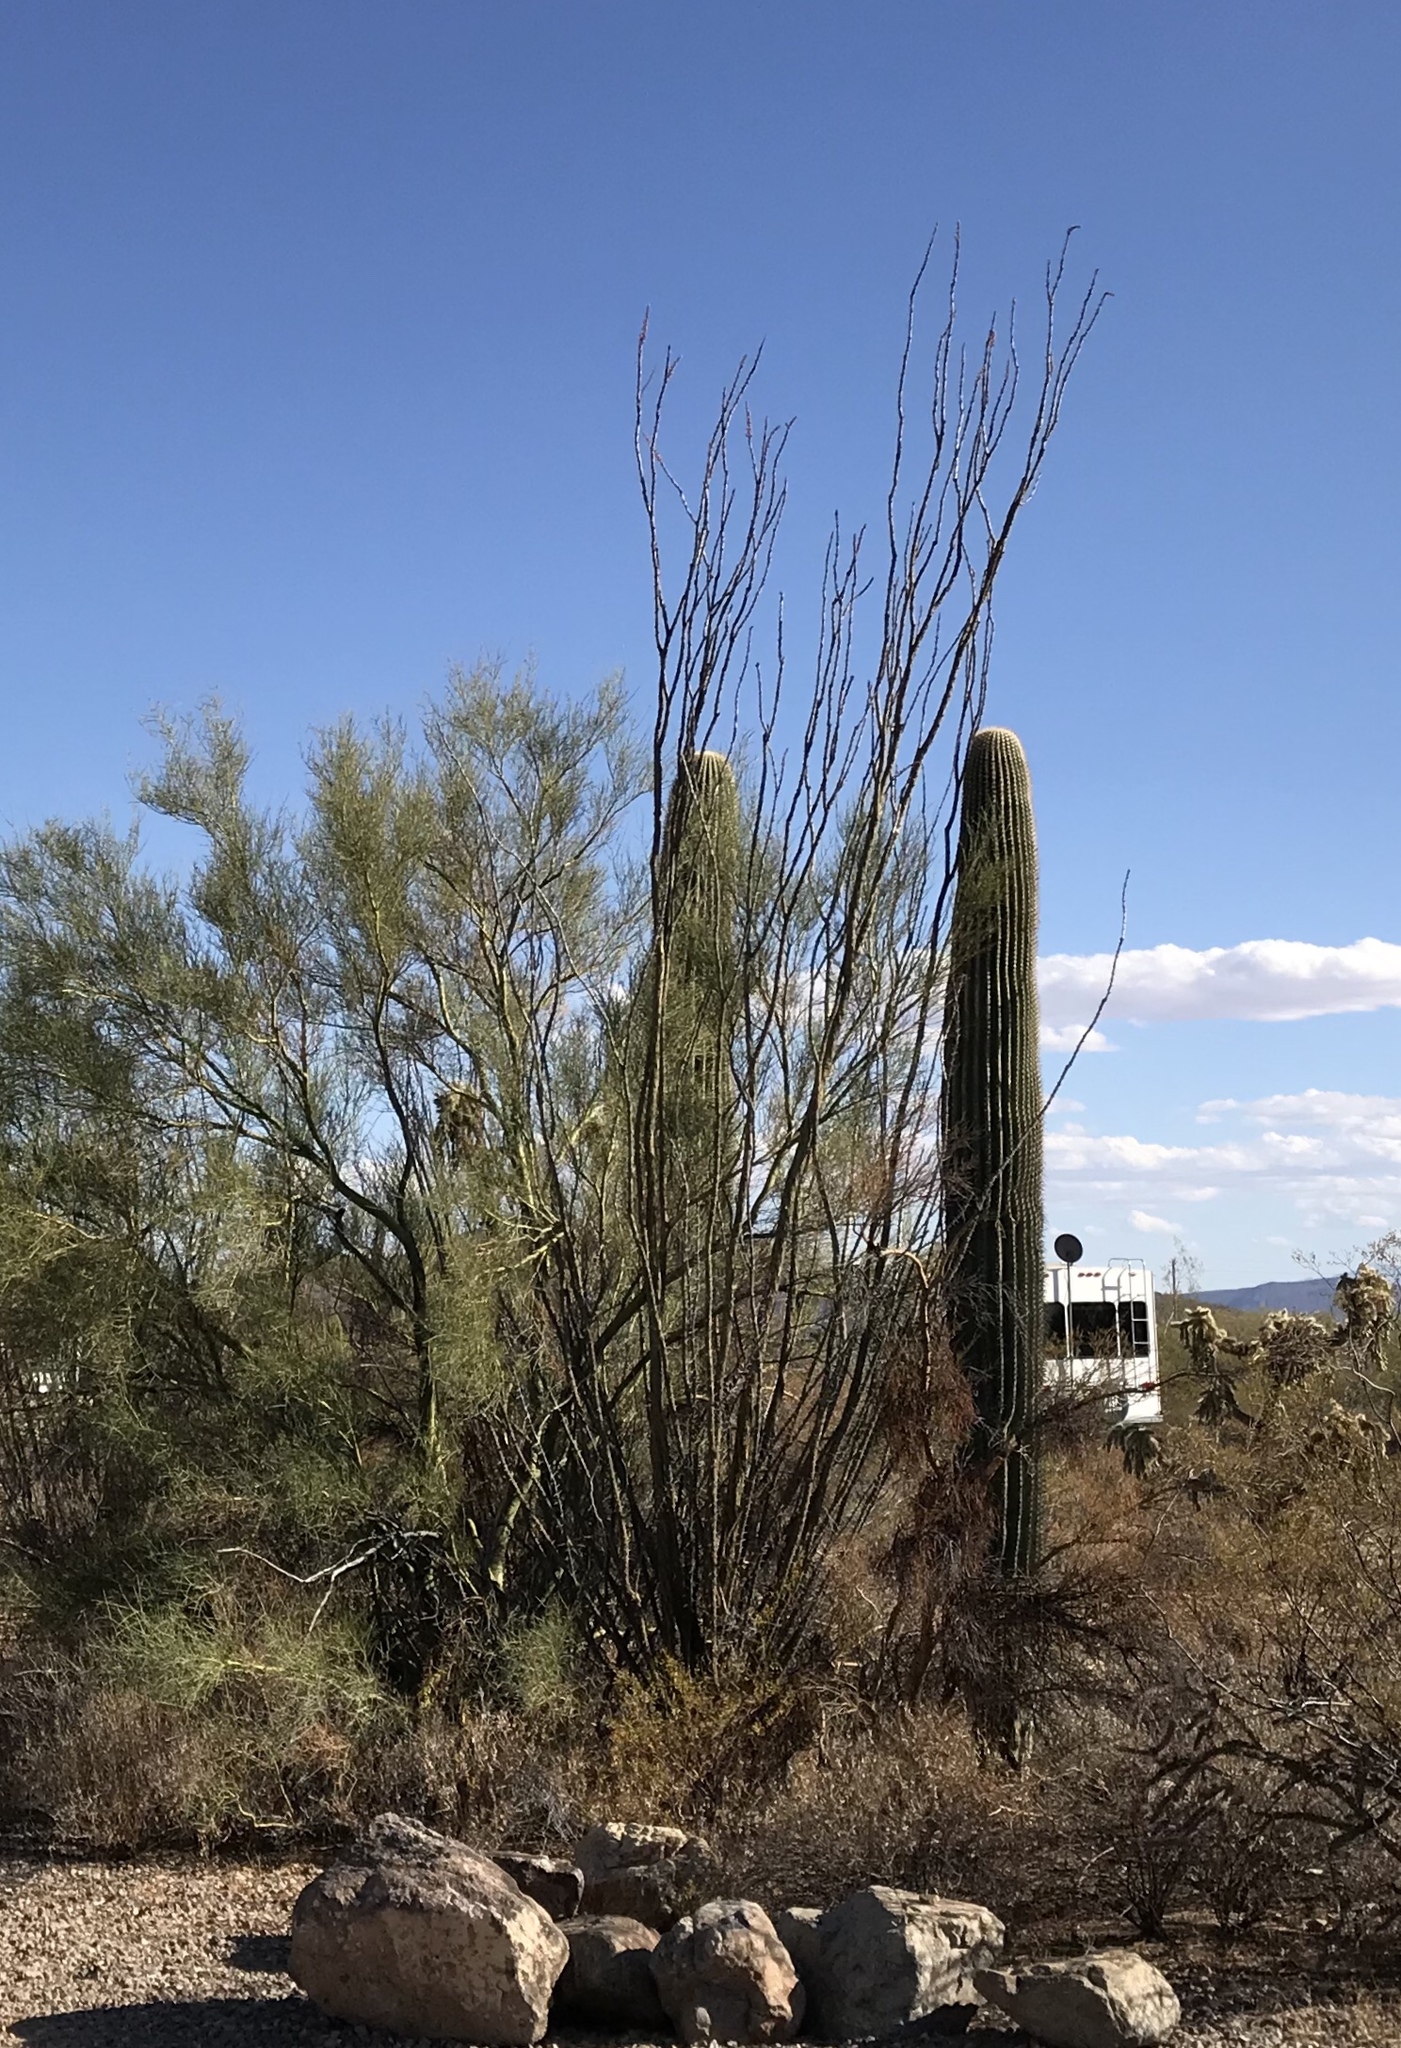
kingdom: Plantae
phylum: Tracheophyta
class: Magnoliopsida
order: Ericales
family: Fouquieriaceae
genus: Fouquieria
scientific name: Fouquieria splendens
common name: Vine-cactus
